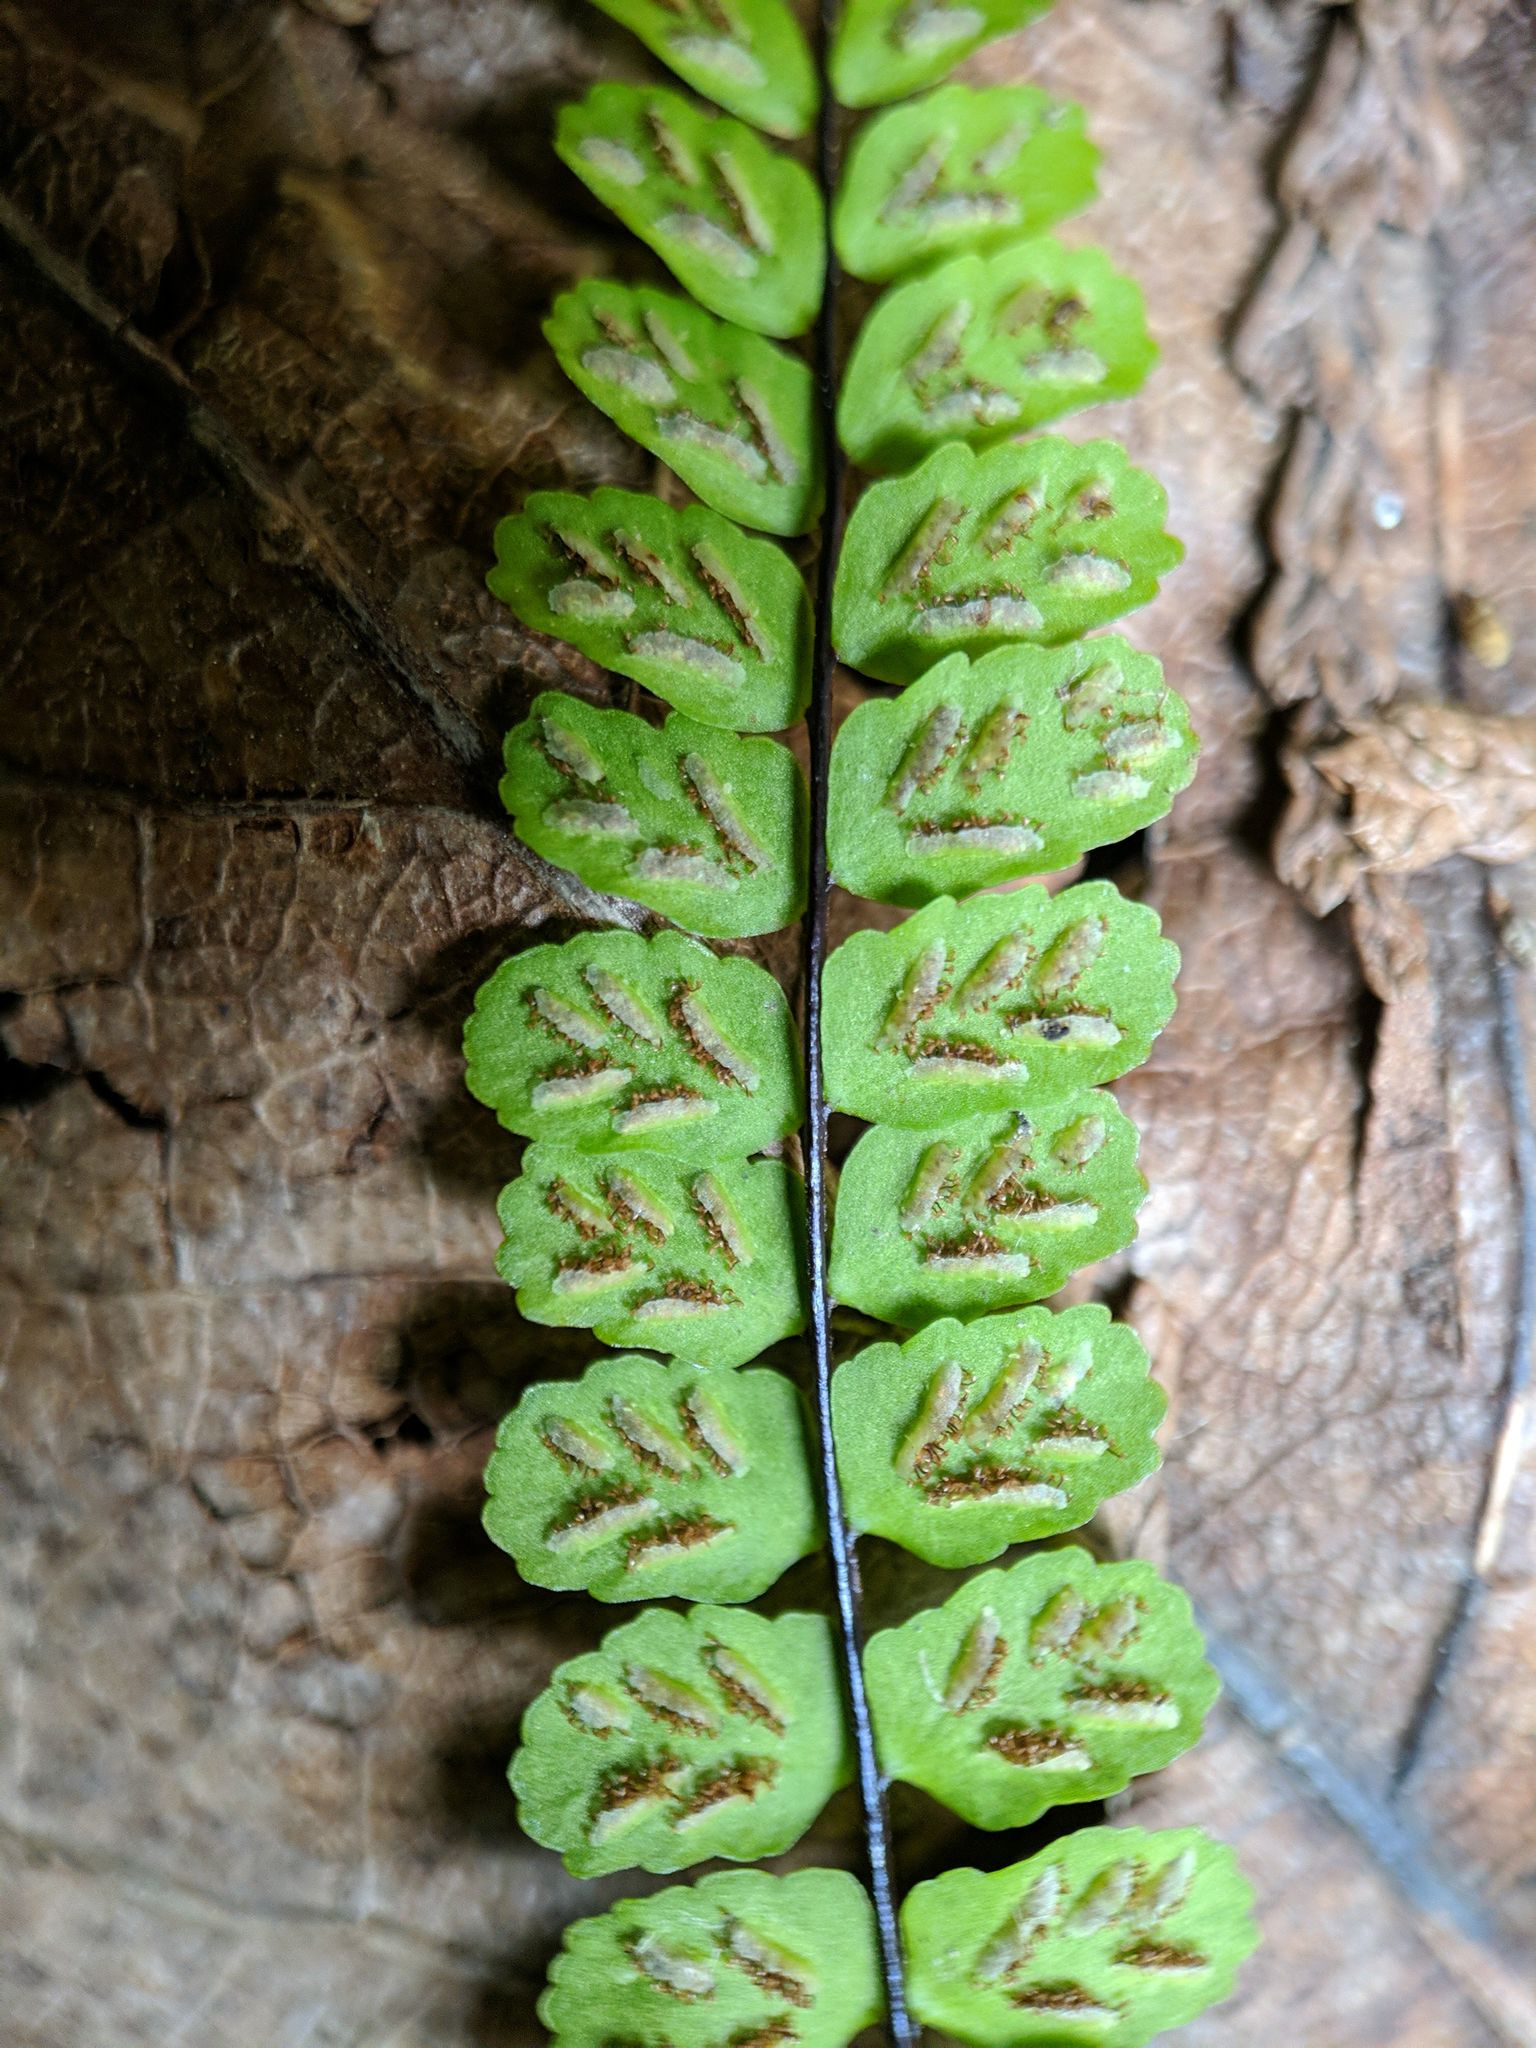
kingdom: Plantae
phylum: Tracheophyta
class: Polypodiopsida
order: Polypodiales
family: Aspleniaceae
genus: Asplenium
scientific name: Asplenium quadrivalens
